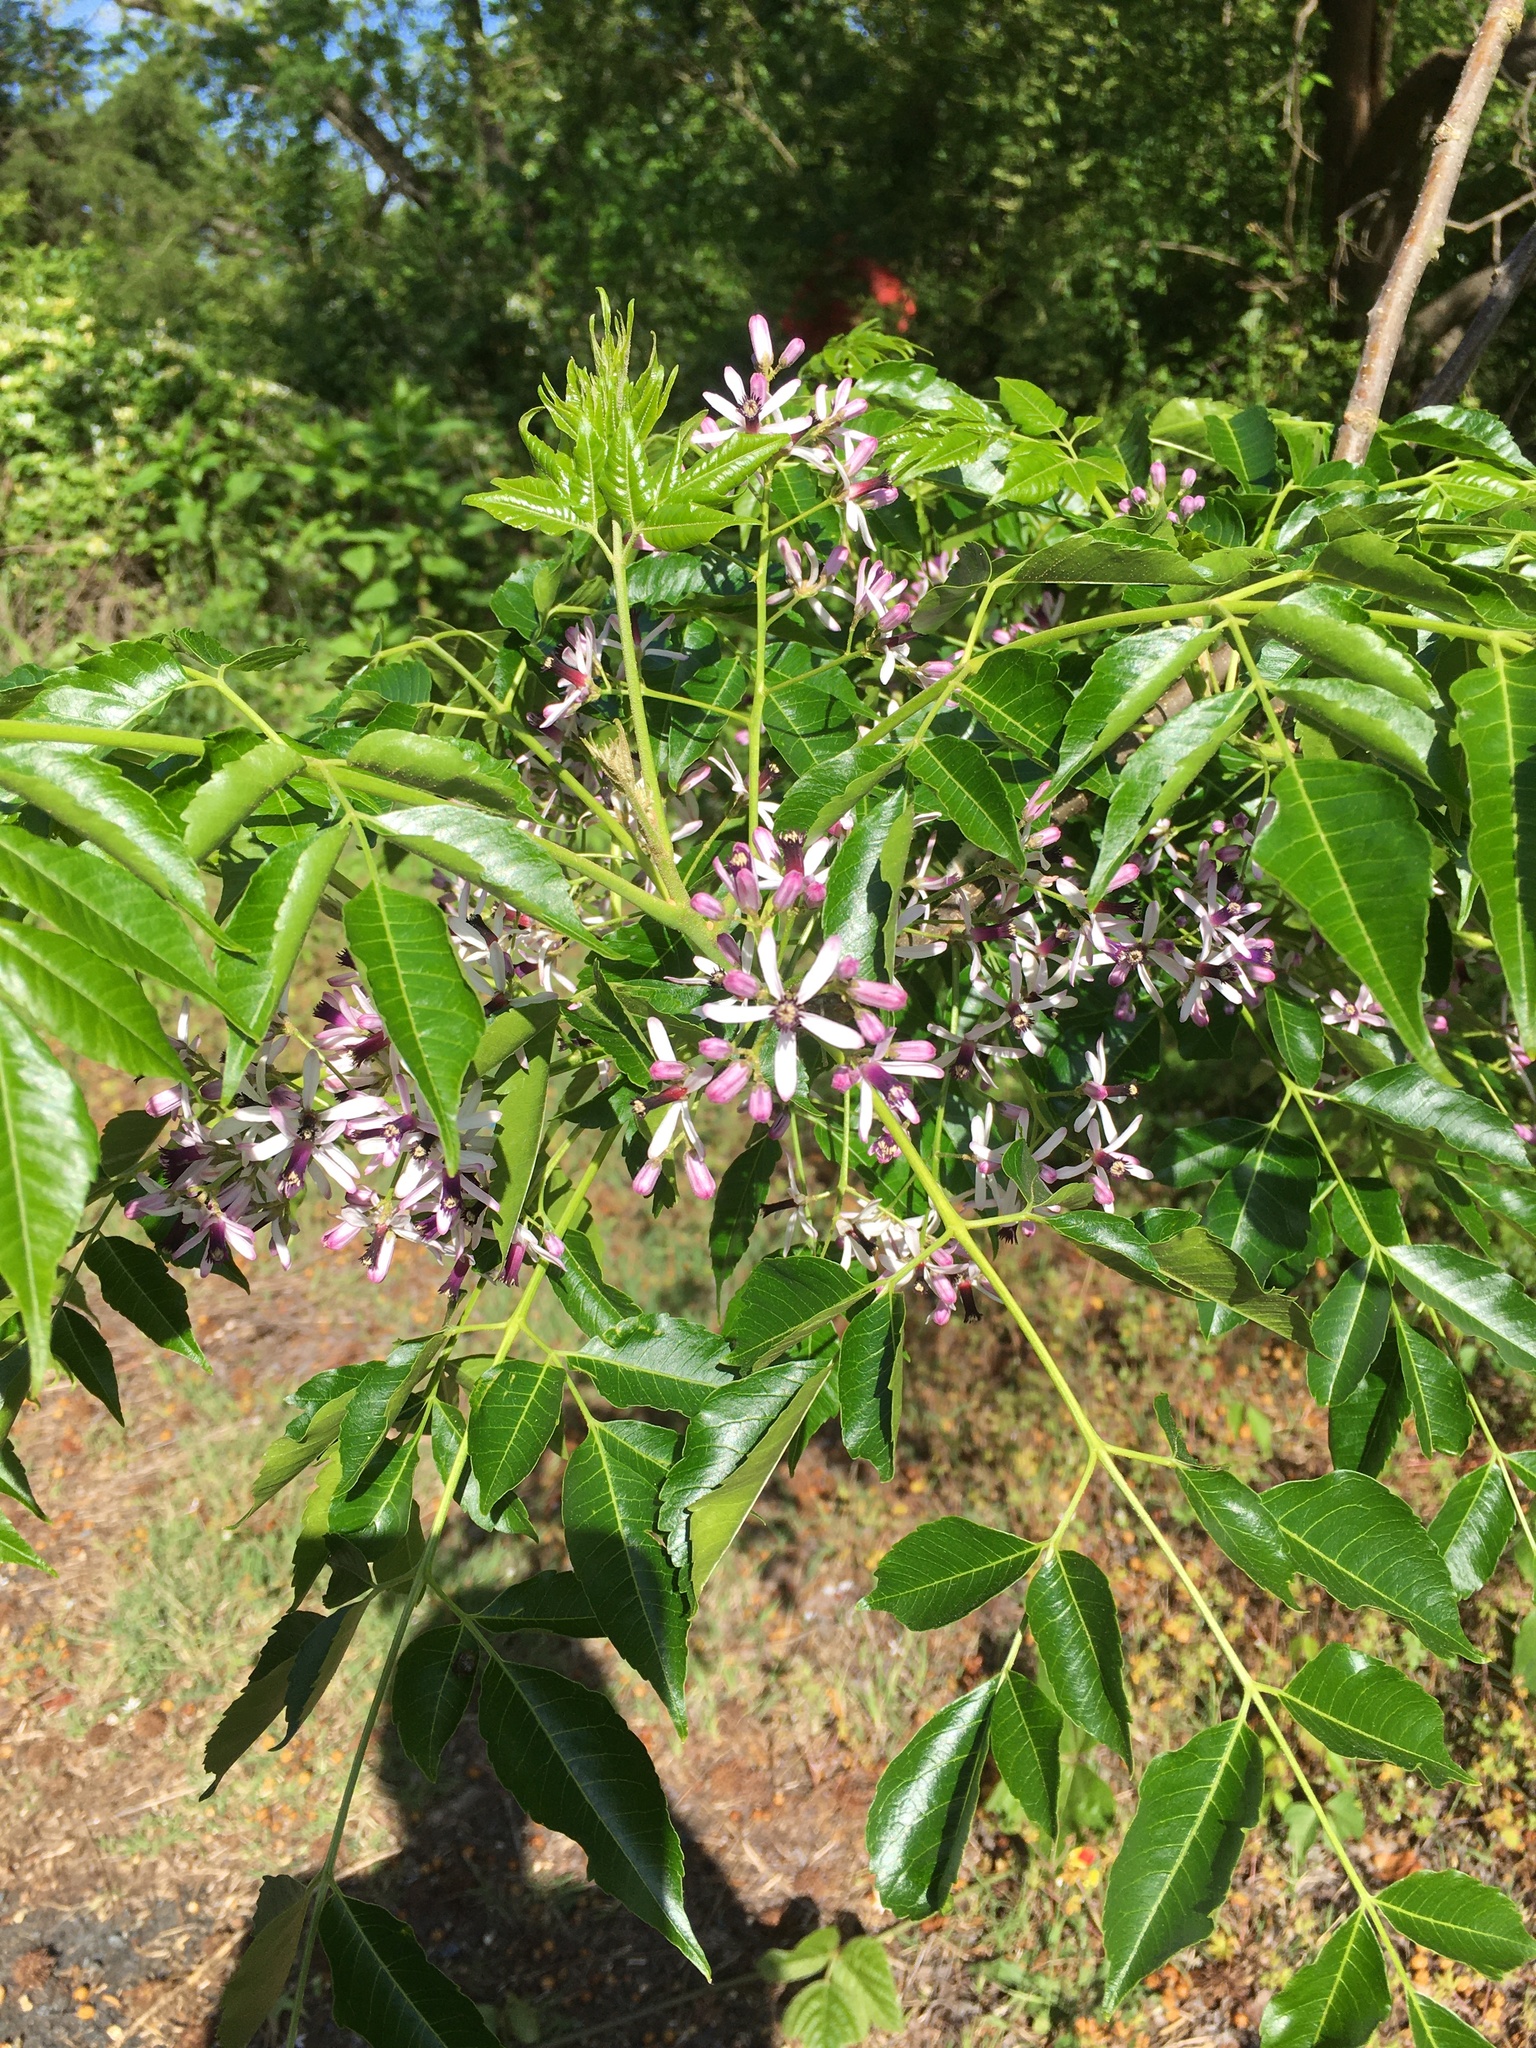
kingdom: Plantae
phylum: Tracheophyta
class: Magnoliopsida
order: Sapindales
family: Meliaceae
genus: Melia
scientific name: Melia azedarach
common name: Chinaberrytree
